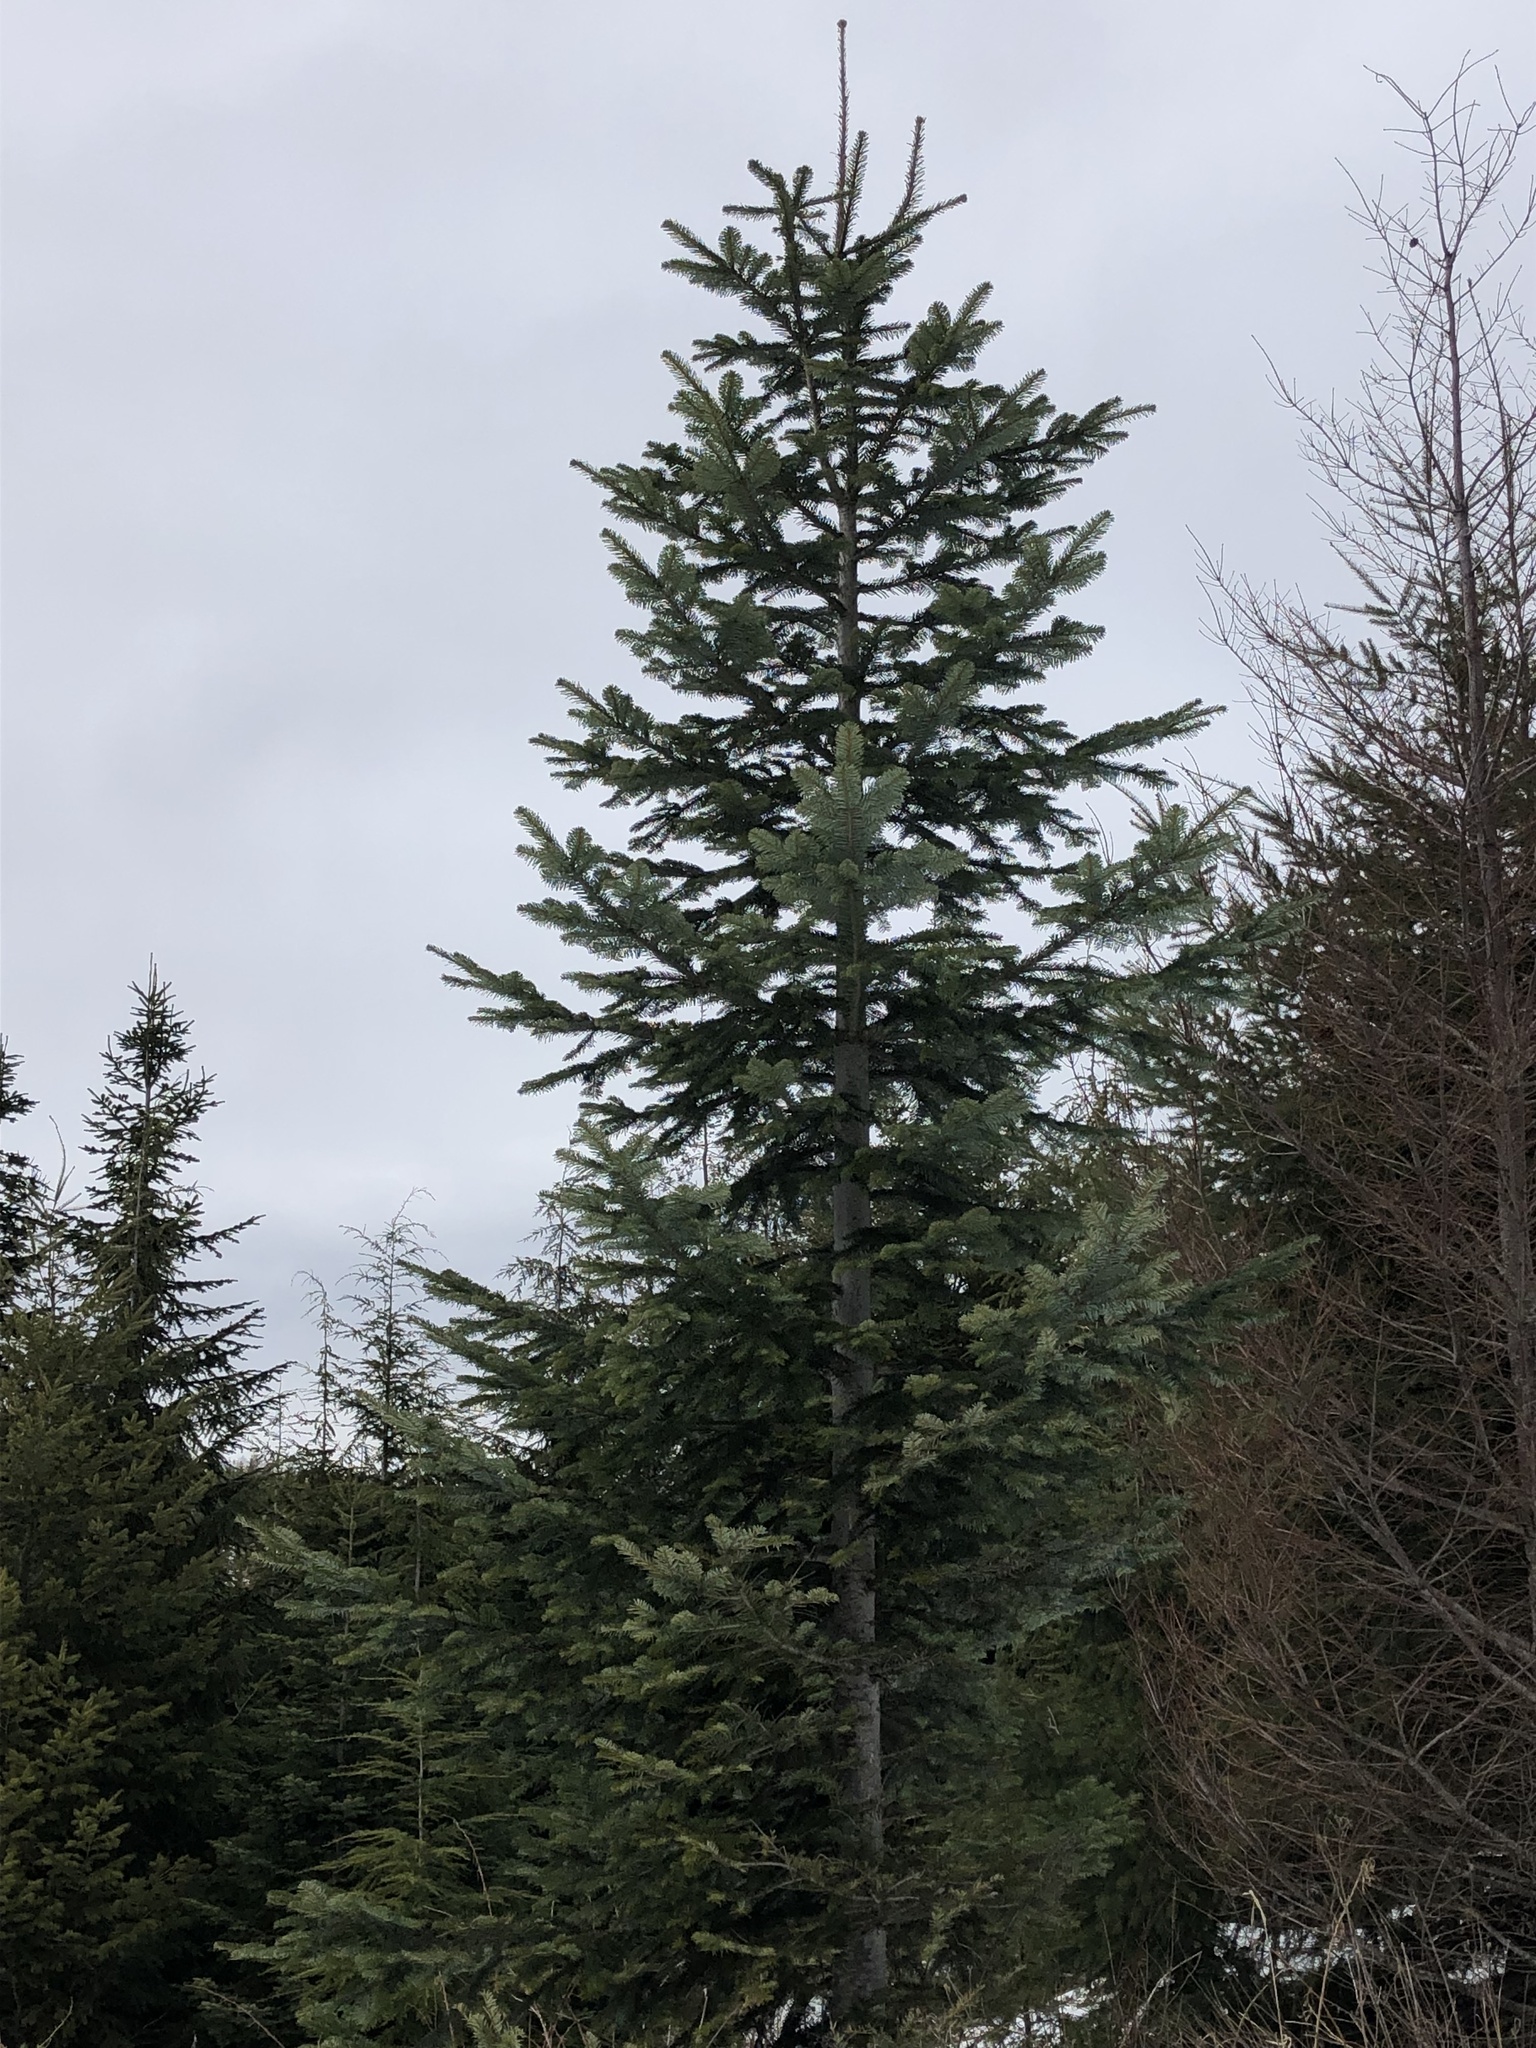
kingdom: Plantae
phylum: Tracheophyta
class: Pinopsida
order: Pinales
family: Pinaceae
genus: Abies
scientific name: Abies amabilis
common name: Pacific silver fir
